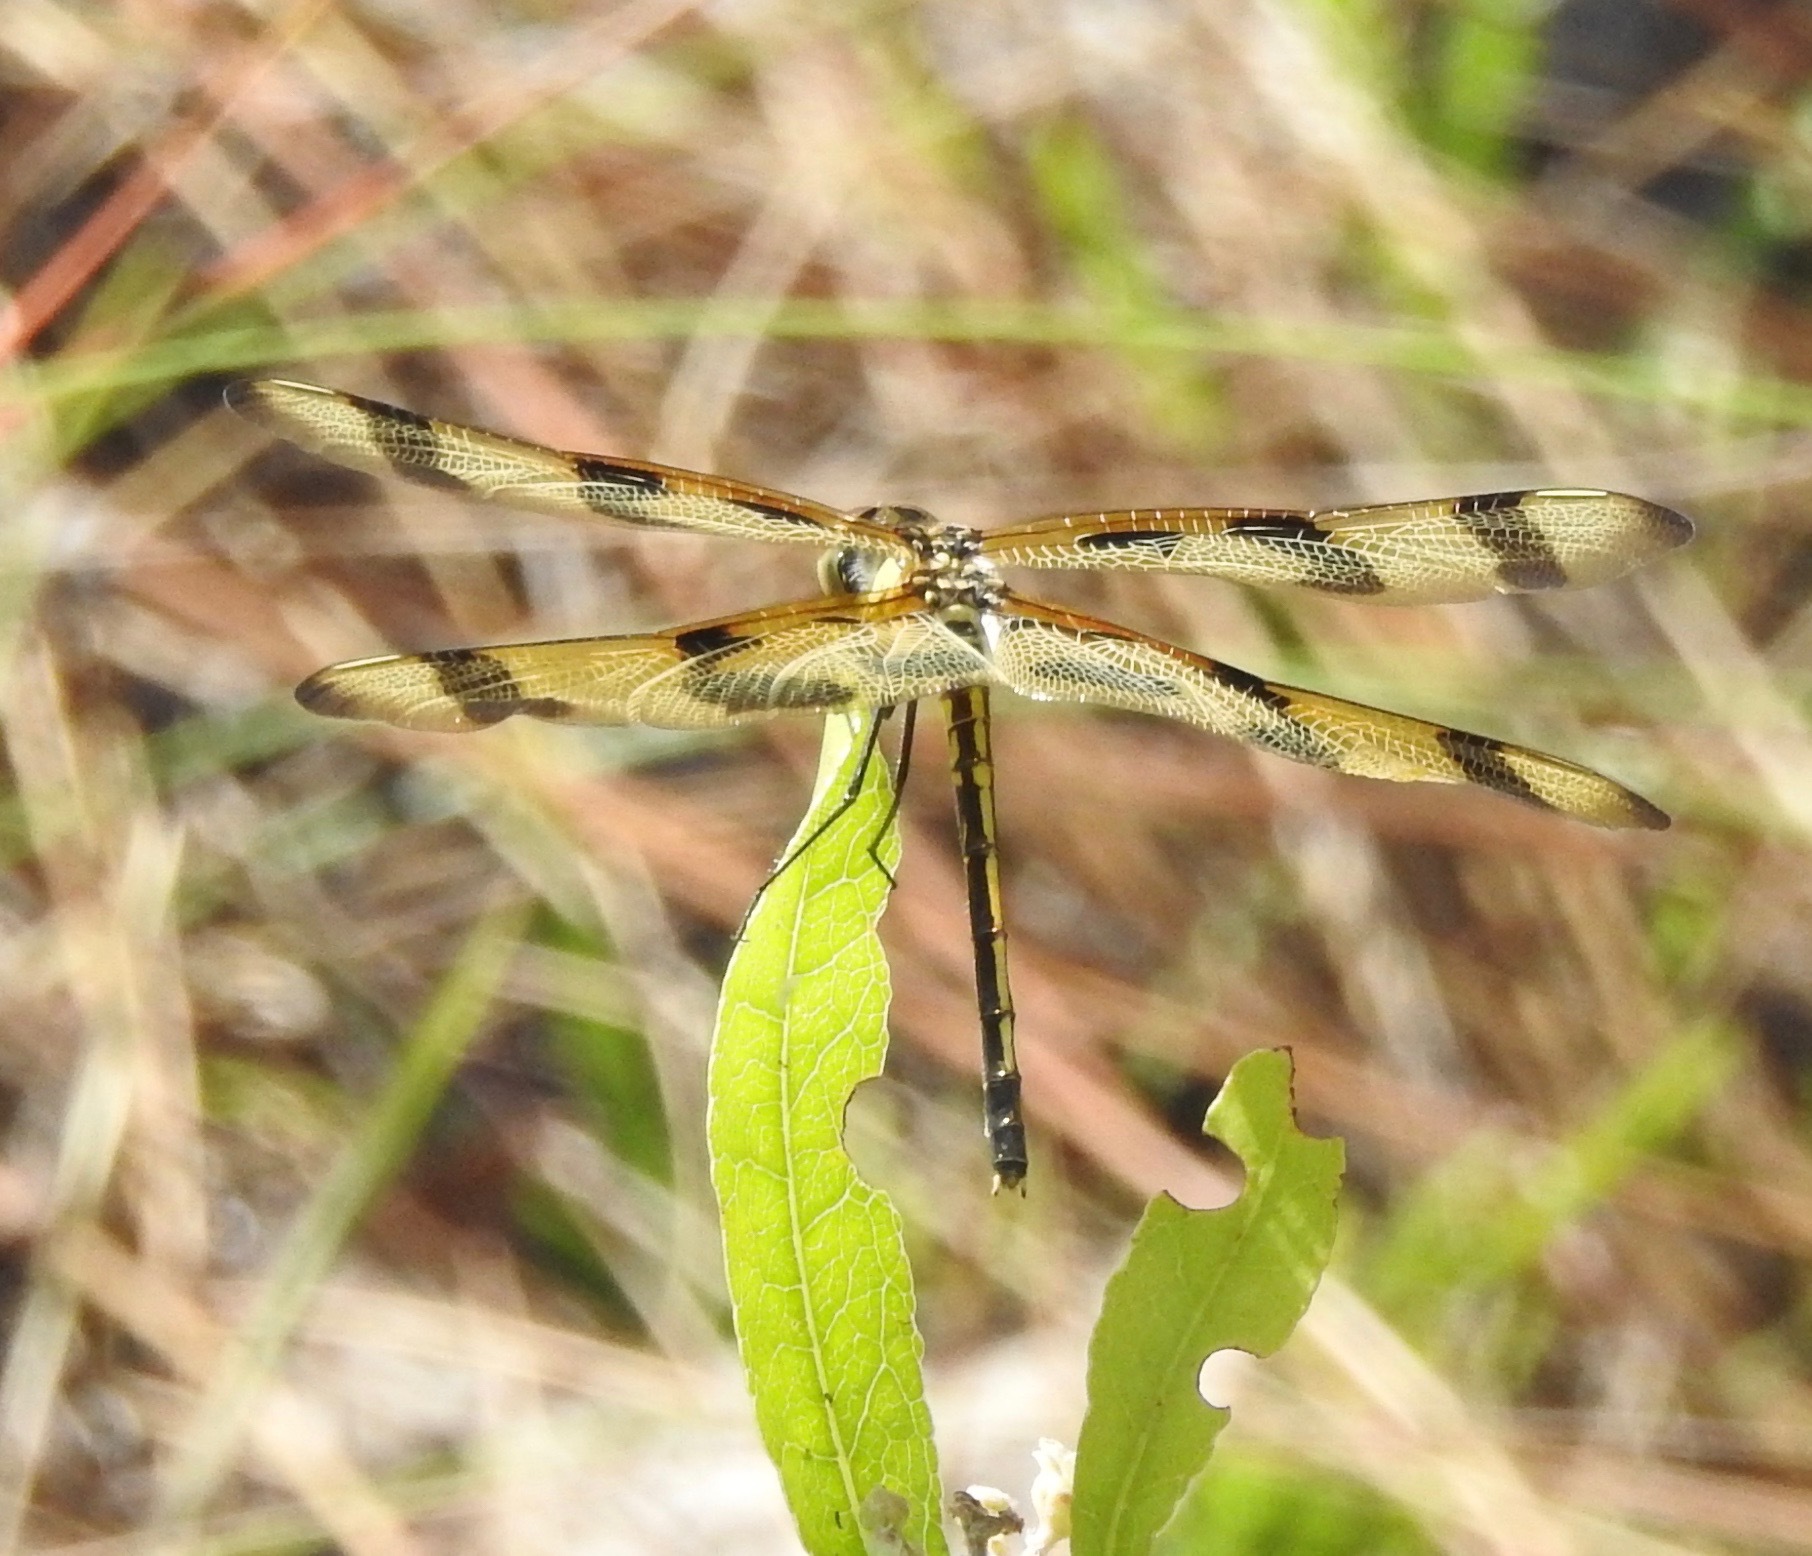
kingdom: Animalia
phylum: Arthropoda
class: Insecta
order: Odonata
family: Libellulidae
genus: Celithemis
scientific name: Celithemis eponina
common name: Halloween pennant
